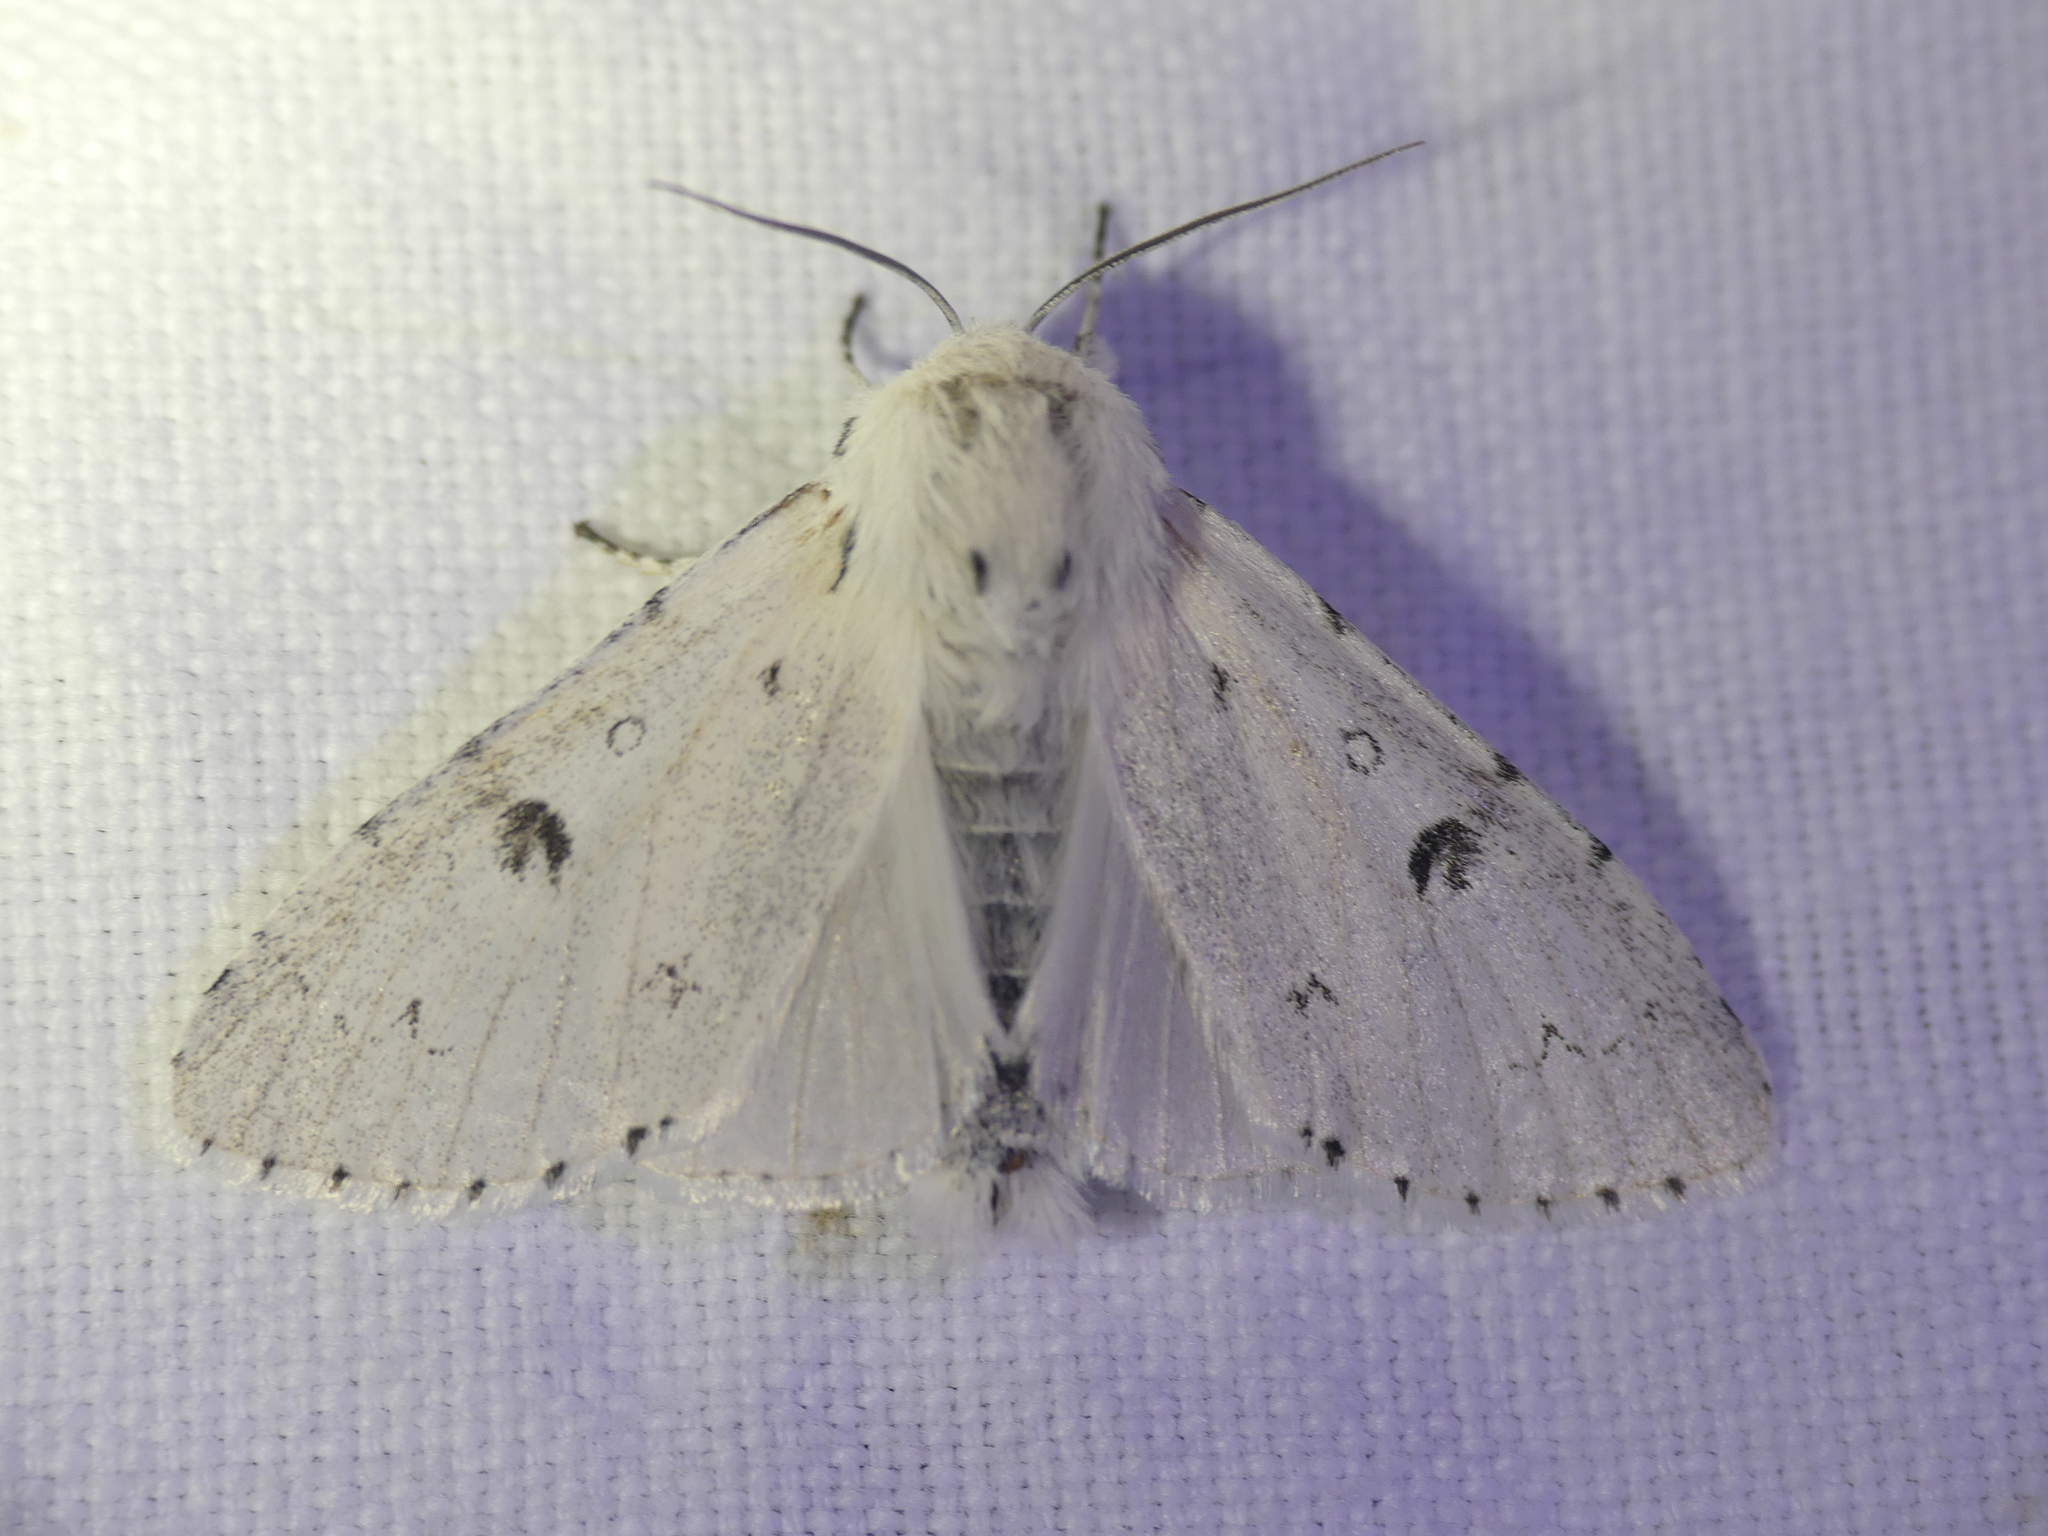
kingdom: Animalia
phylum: Arthropoda
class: Insecta
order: Lepidoptera
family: Noctuidae
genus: Acronicta
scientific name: Acronicta leporina
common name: Miller
